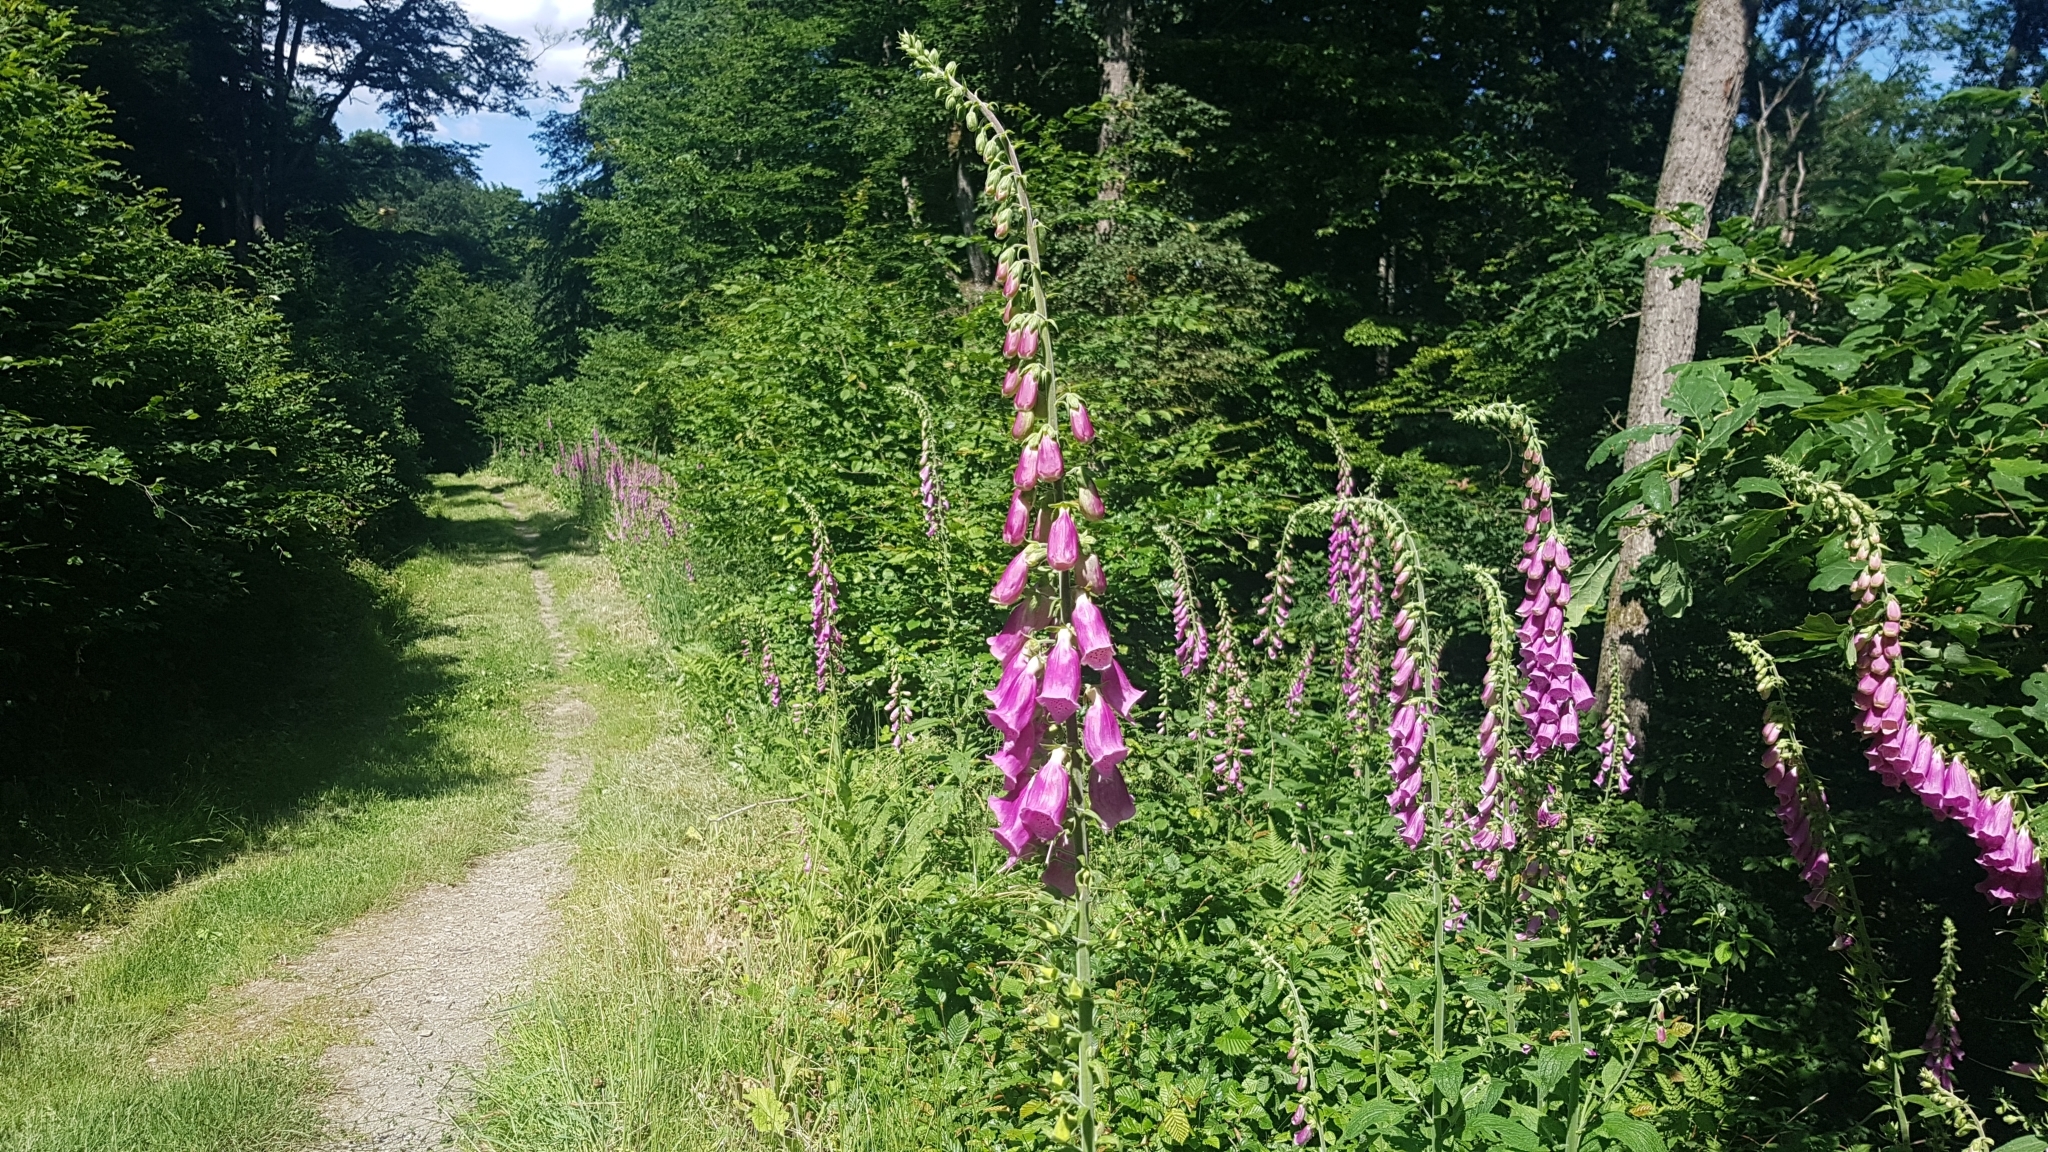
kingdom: Plantae
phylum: Tracheophyta
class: Magnoliopsida
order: Lamiales
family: Plantaginaceae
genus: Digitalis
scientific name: Digitalis purpurea
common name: Foxglove
